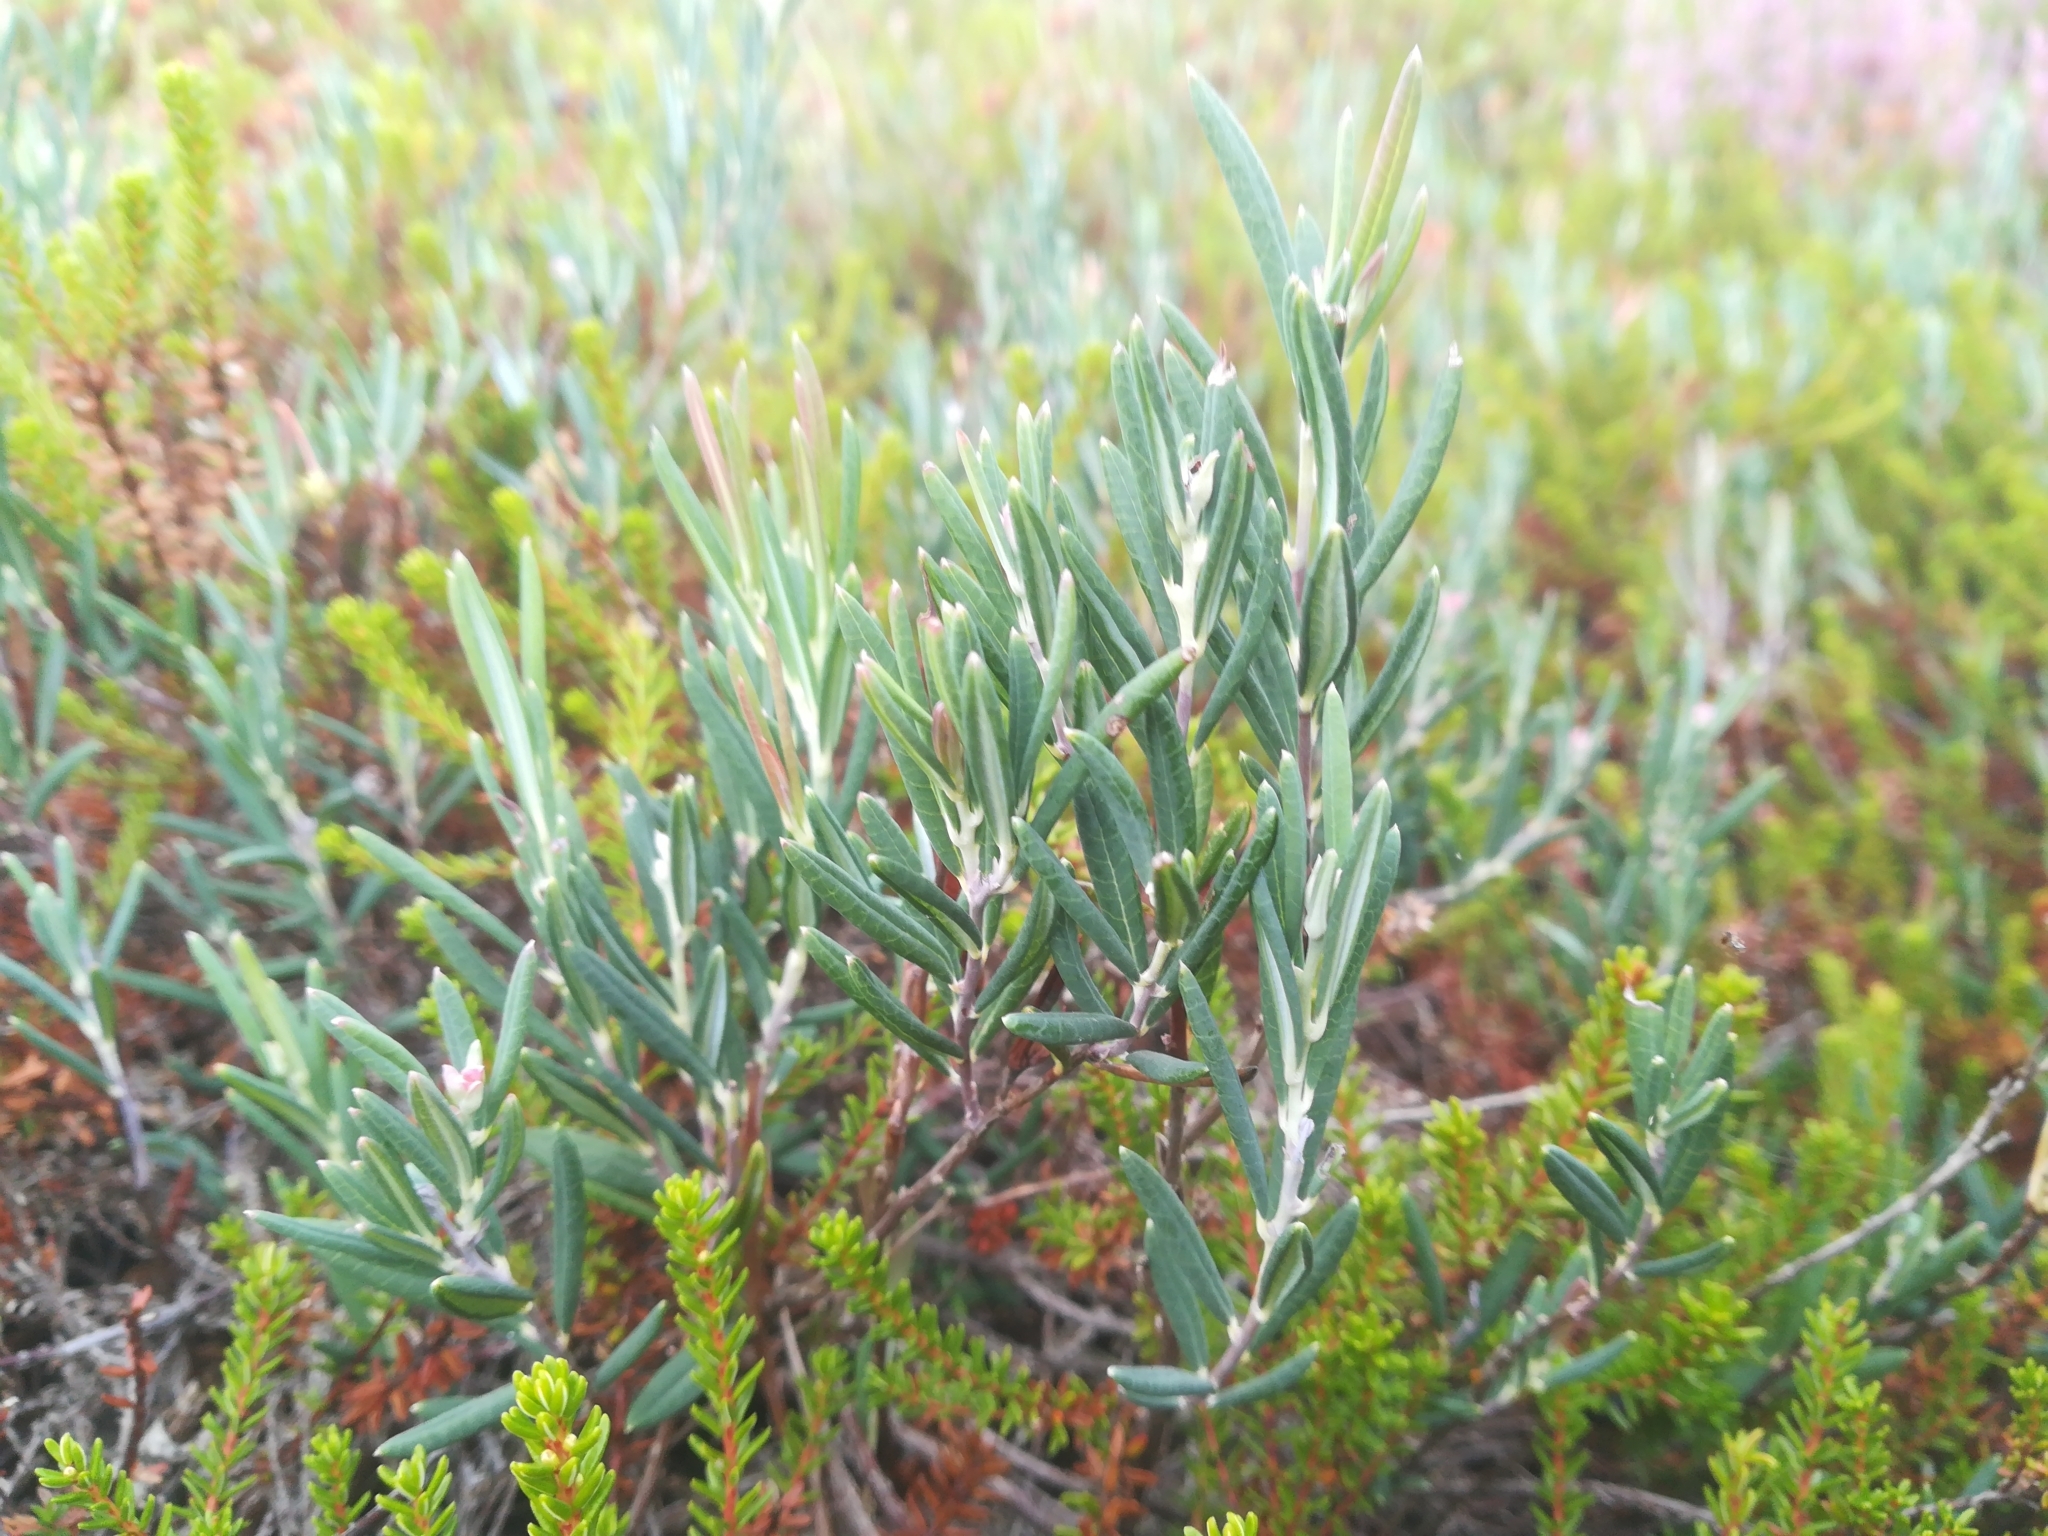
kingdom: Plantae
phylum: Tracheophyta
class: Magnoliopsida
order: Ericales
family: Ericaceae
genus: Andromeda
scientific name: Andromeda polifolia
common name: Bog-rosemary
